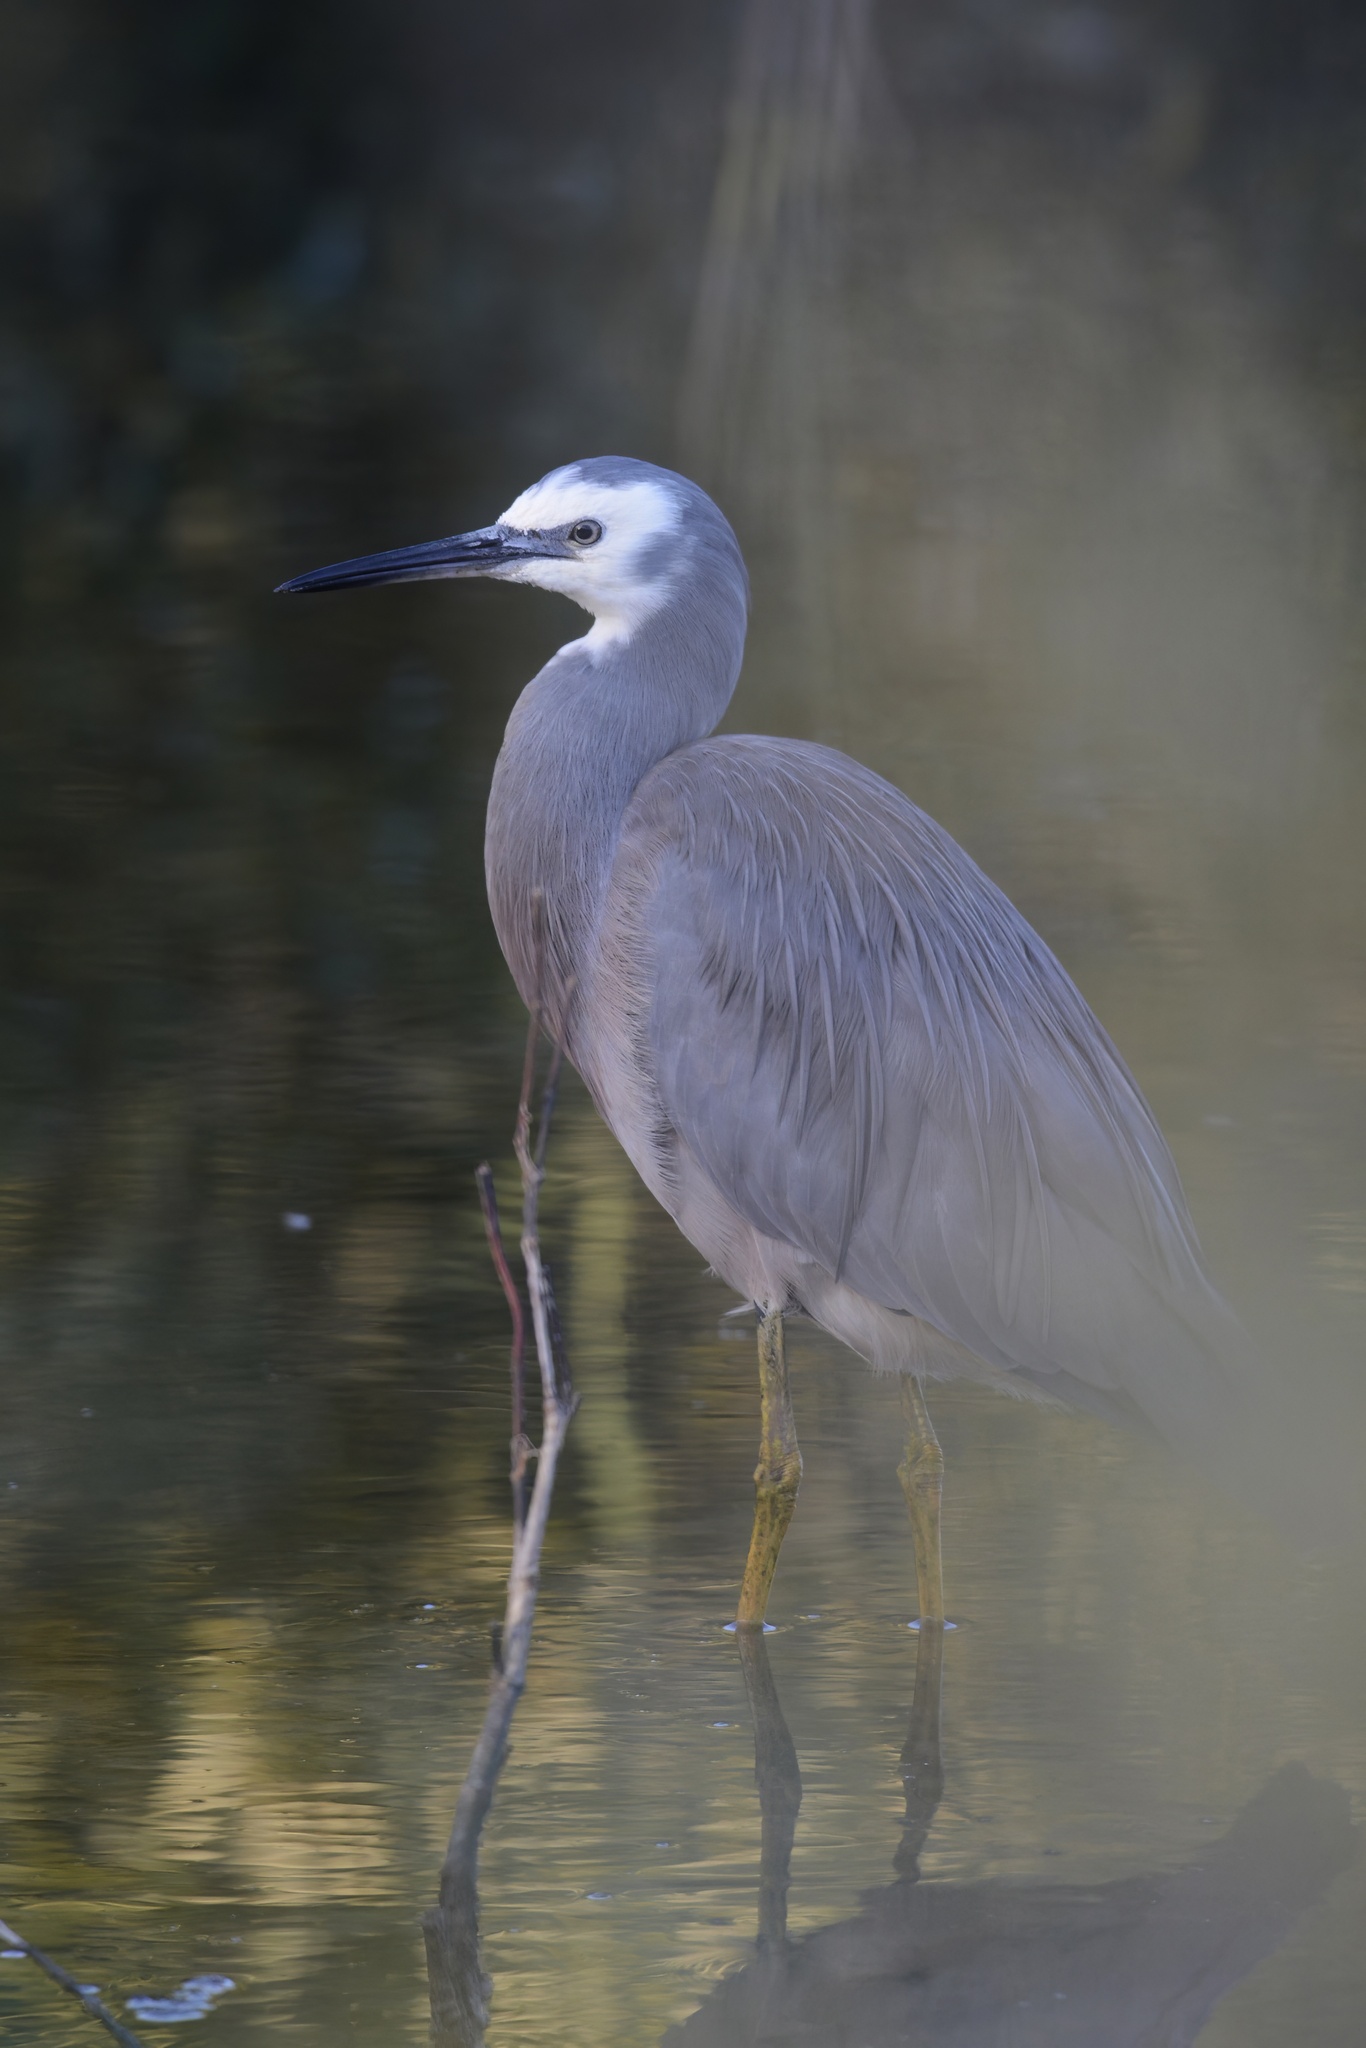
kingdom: Animalia
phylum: Chordata
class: Aves
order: Pelecaniformes
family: Ardeidae
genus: Egretta
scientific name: Egretta novaehollandiae
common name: White-faced heron
